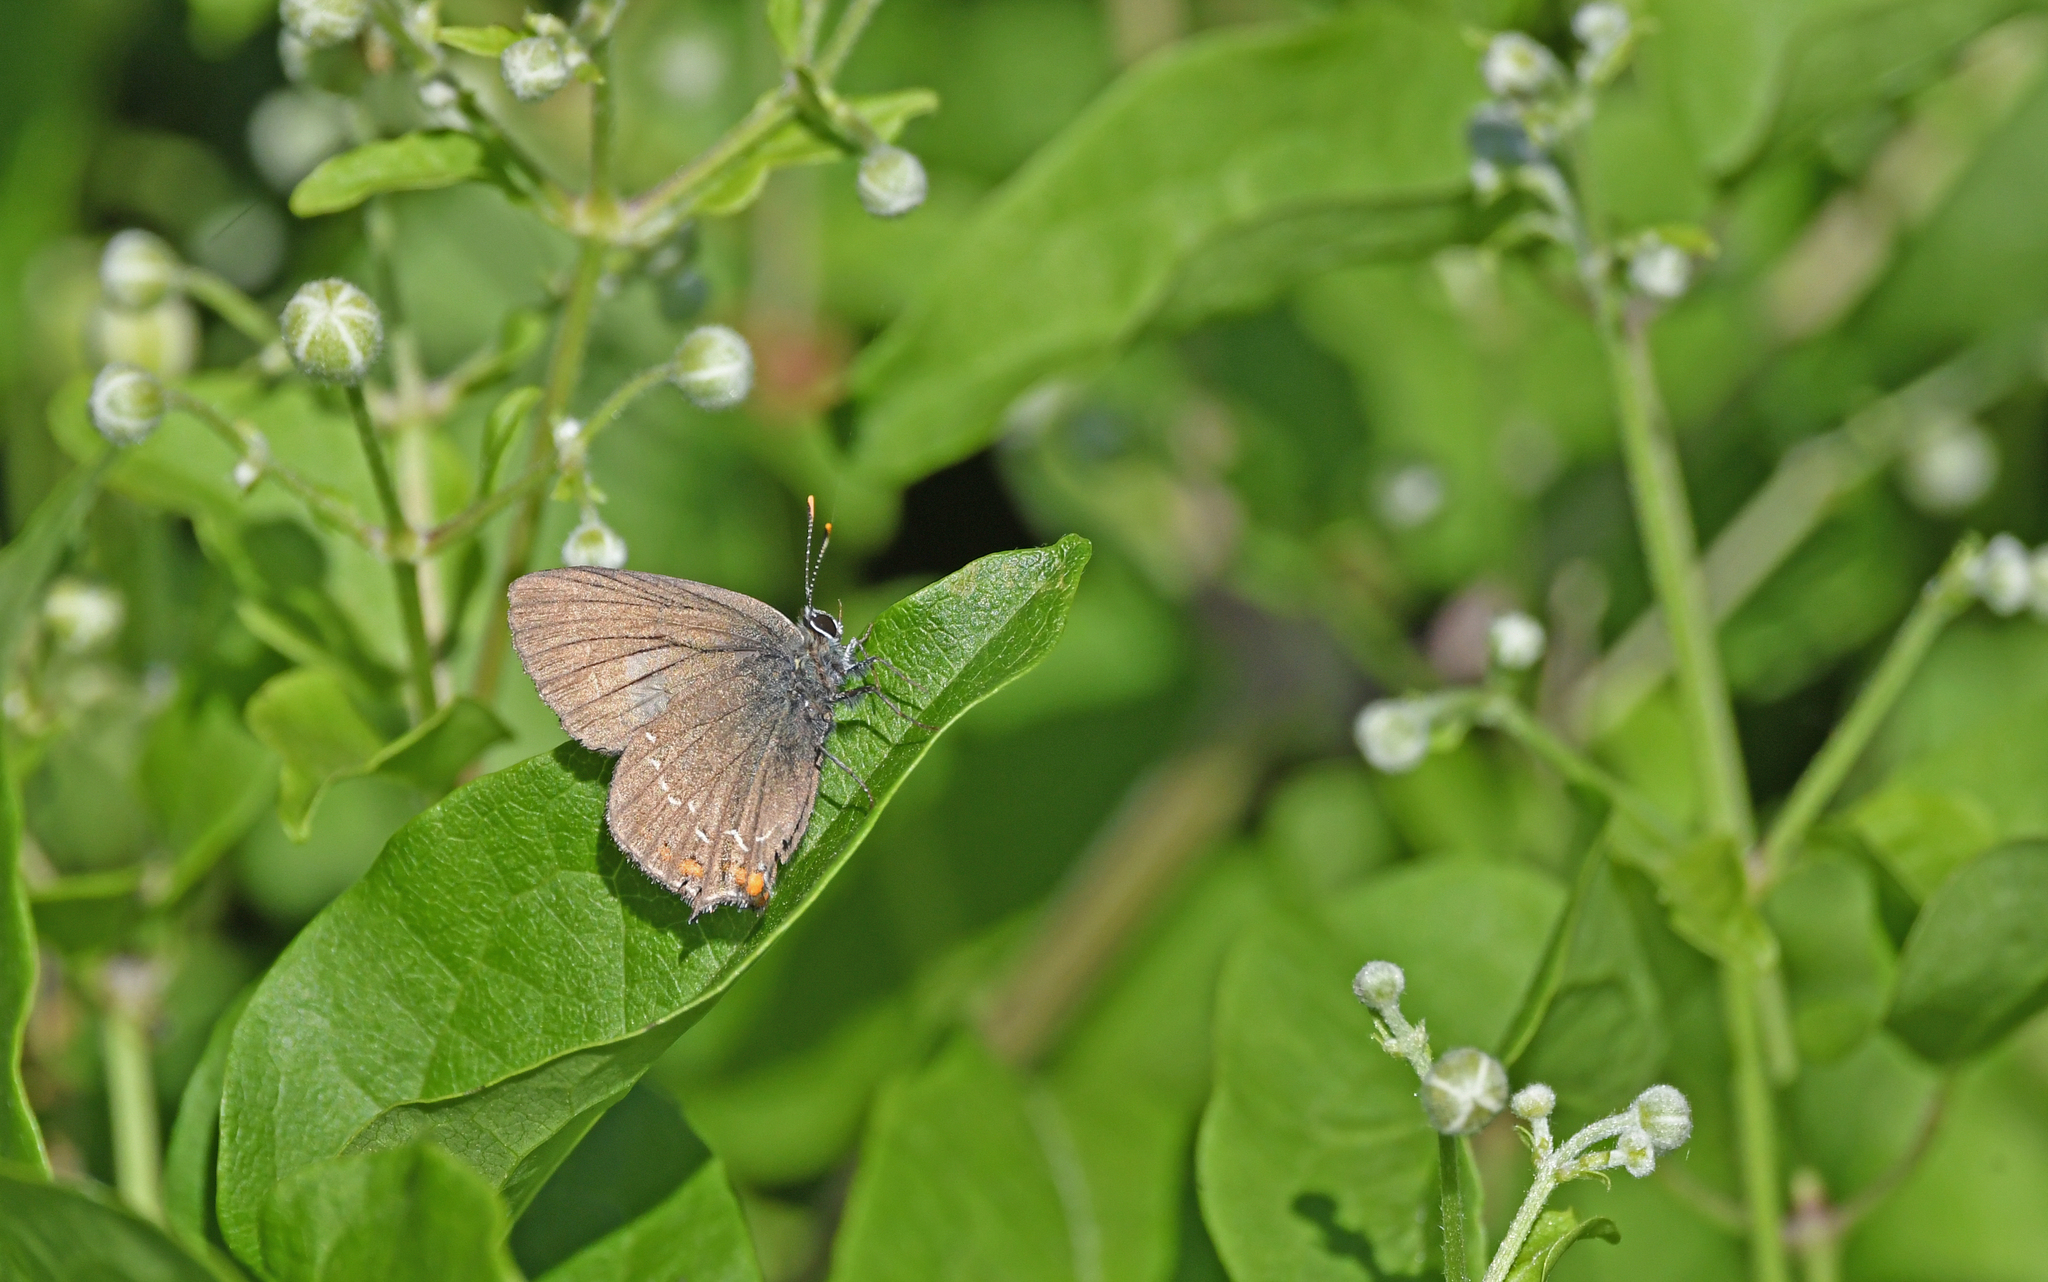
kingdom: Animalia
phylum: Arthropoda
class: Insecta
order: Lepidoptera
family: Lycaenidae
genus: Nordmannia
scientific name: Nordmannia ilicis
